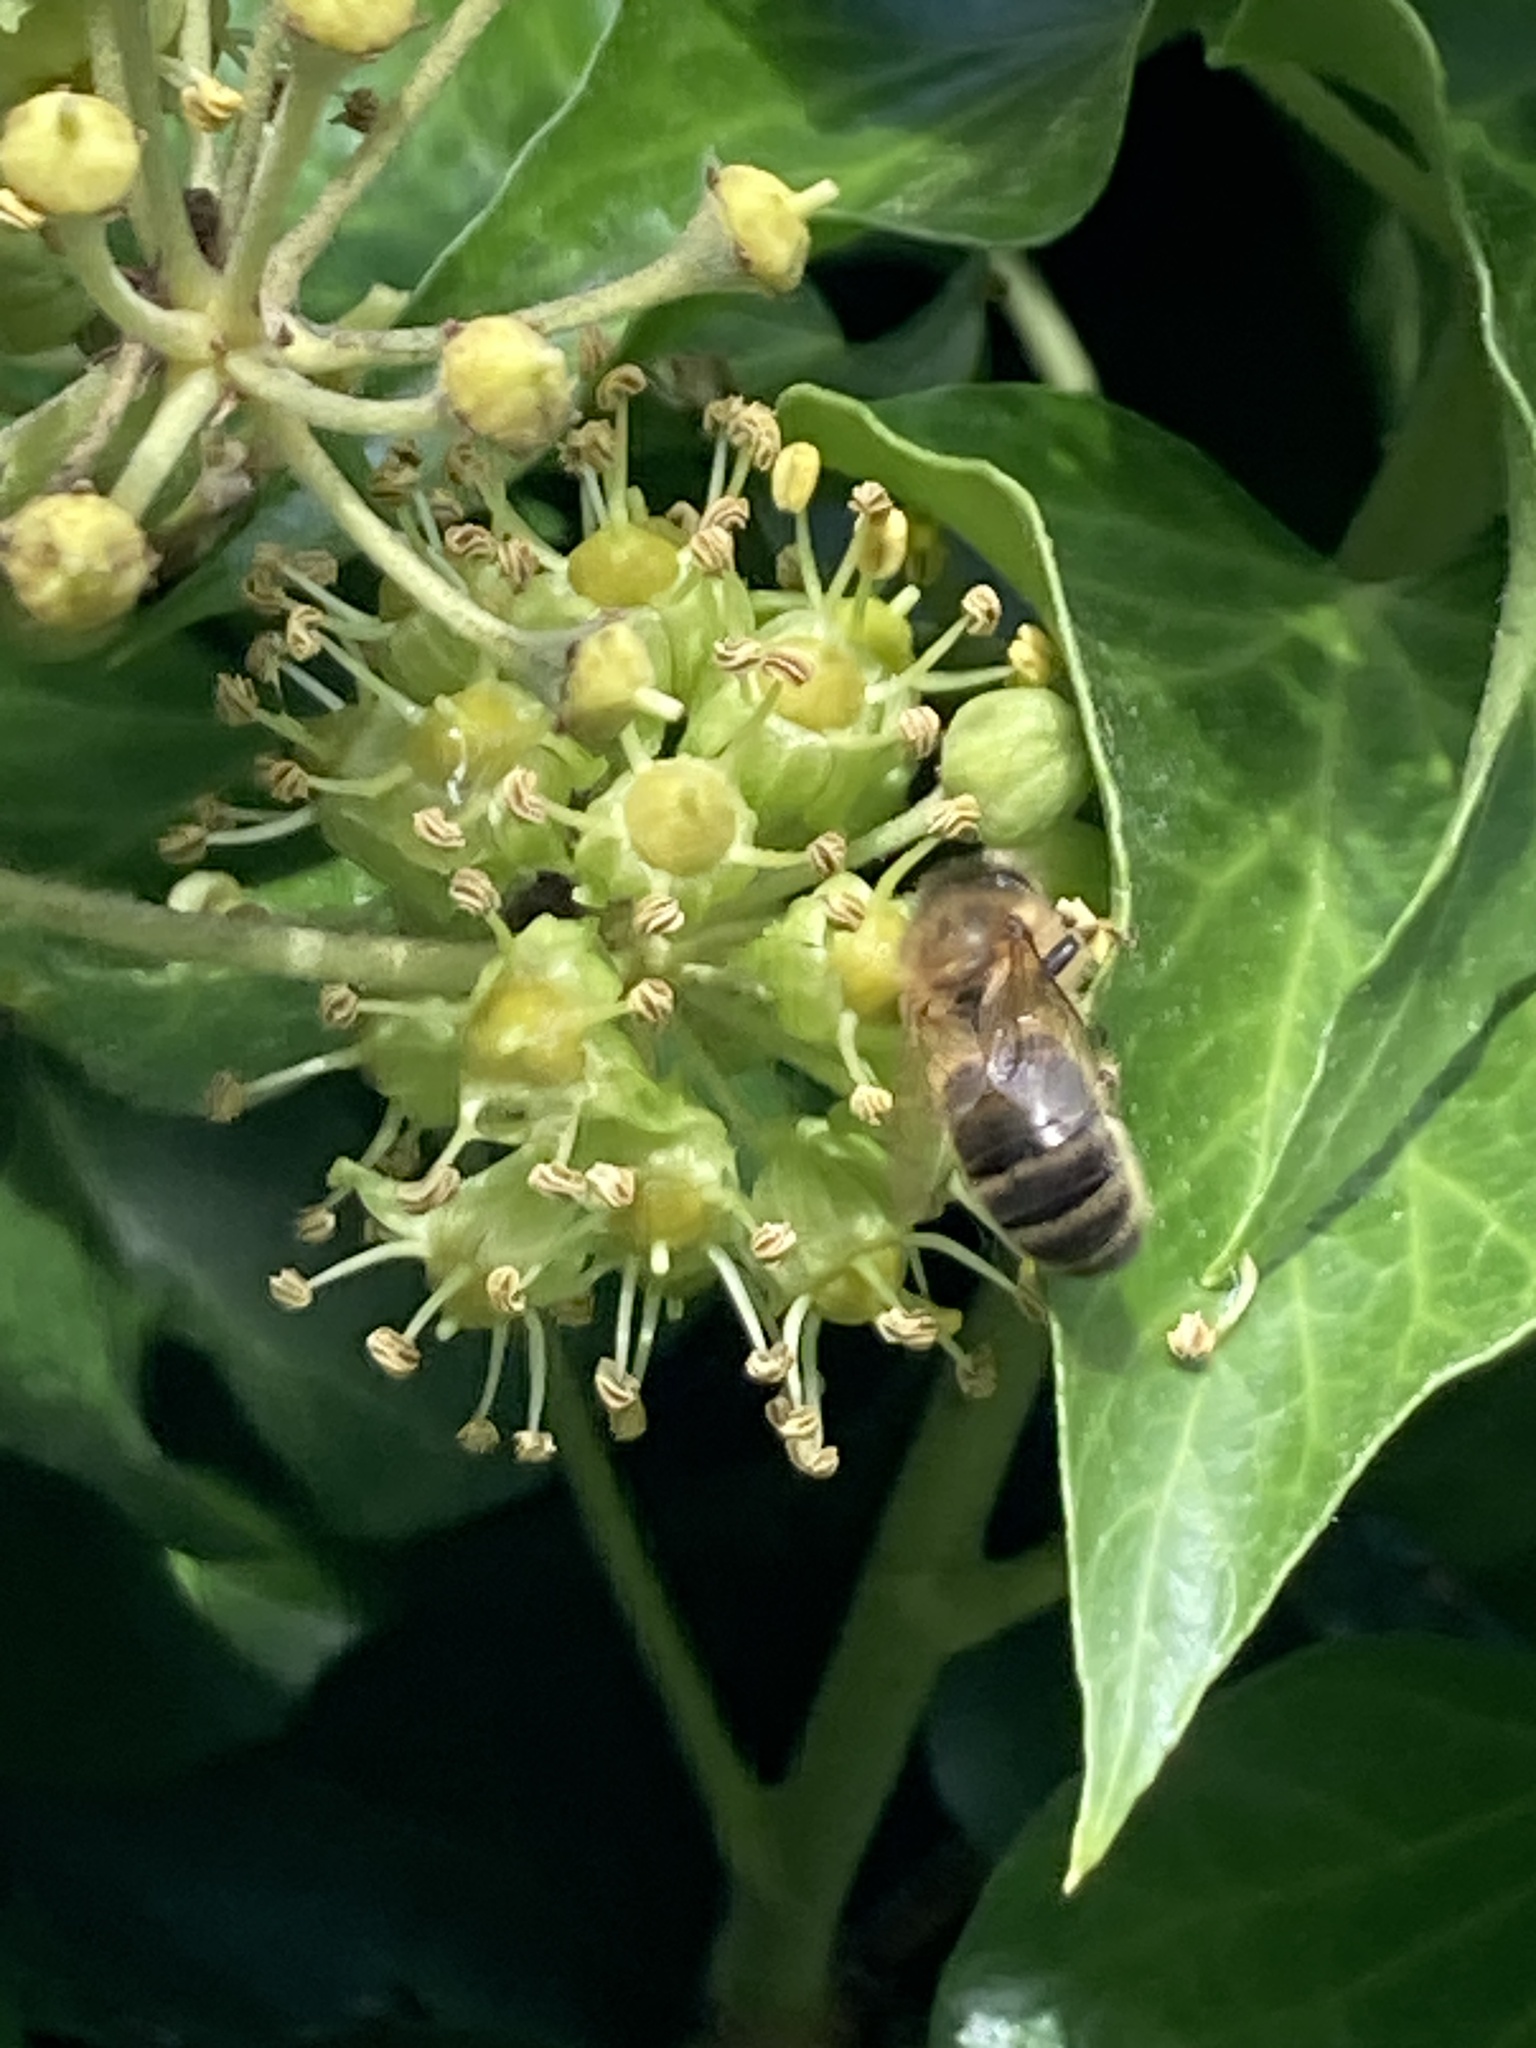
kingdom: Animalia
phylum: Arthropoda
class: Insecta
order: Hymenoptera
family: Apidae
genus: Apis
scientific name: Apis mellifera
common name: Honey bee
